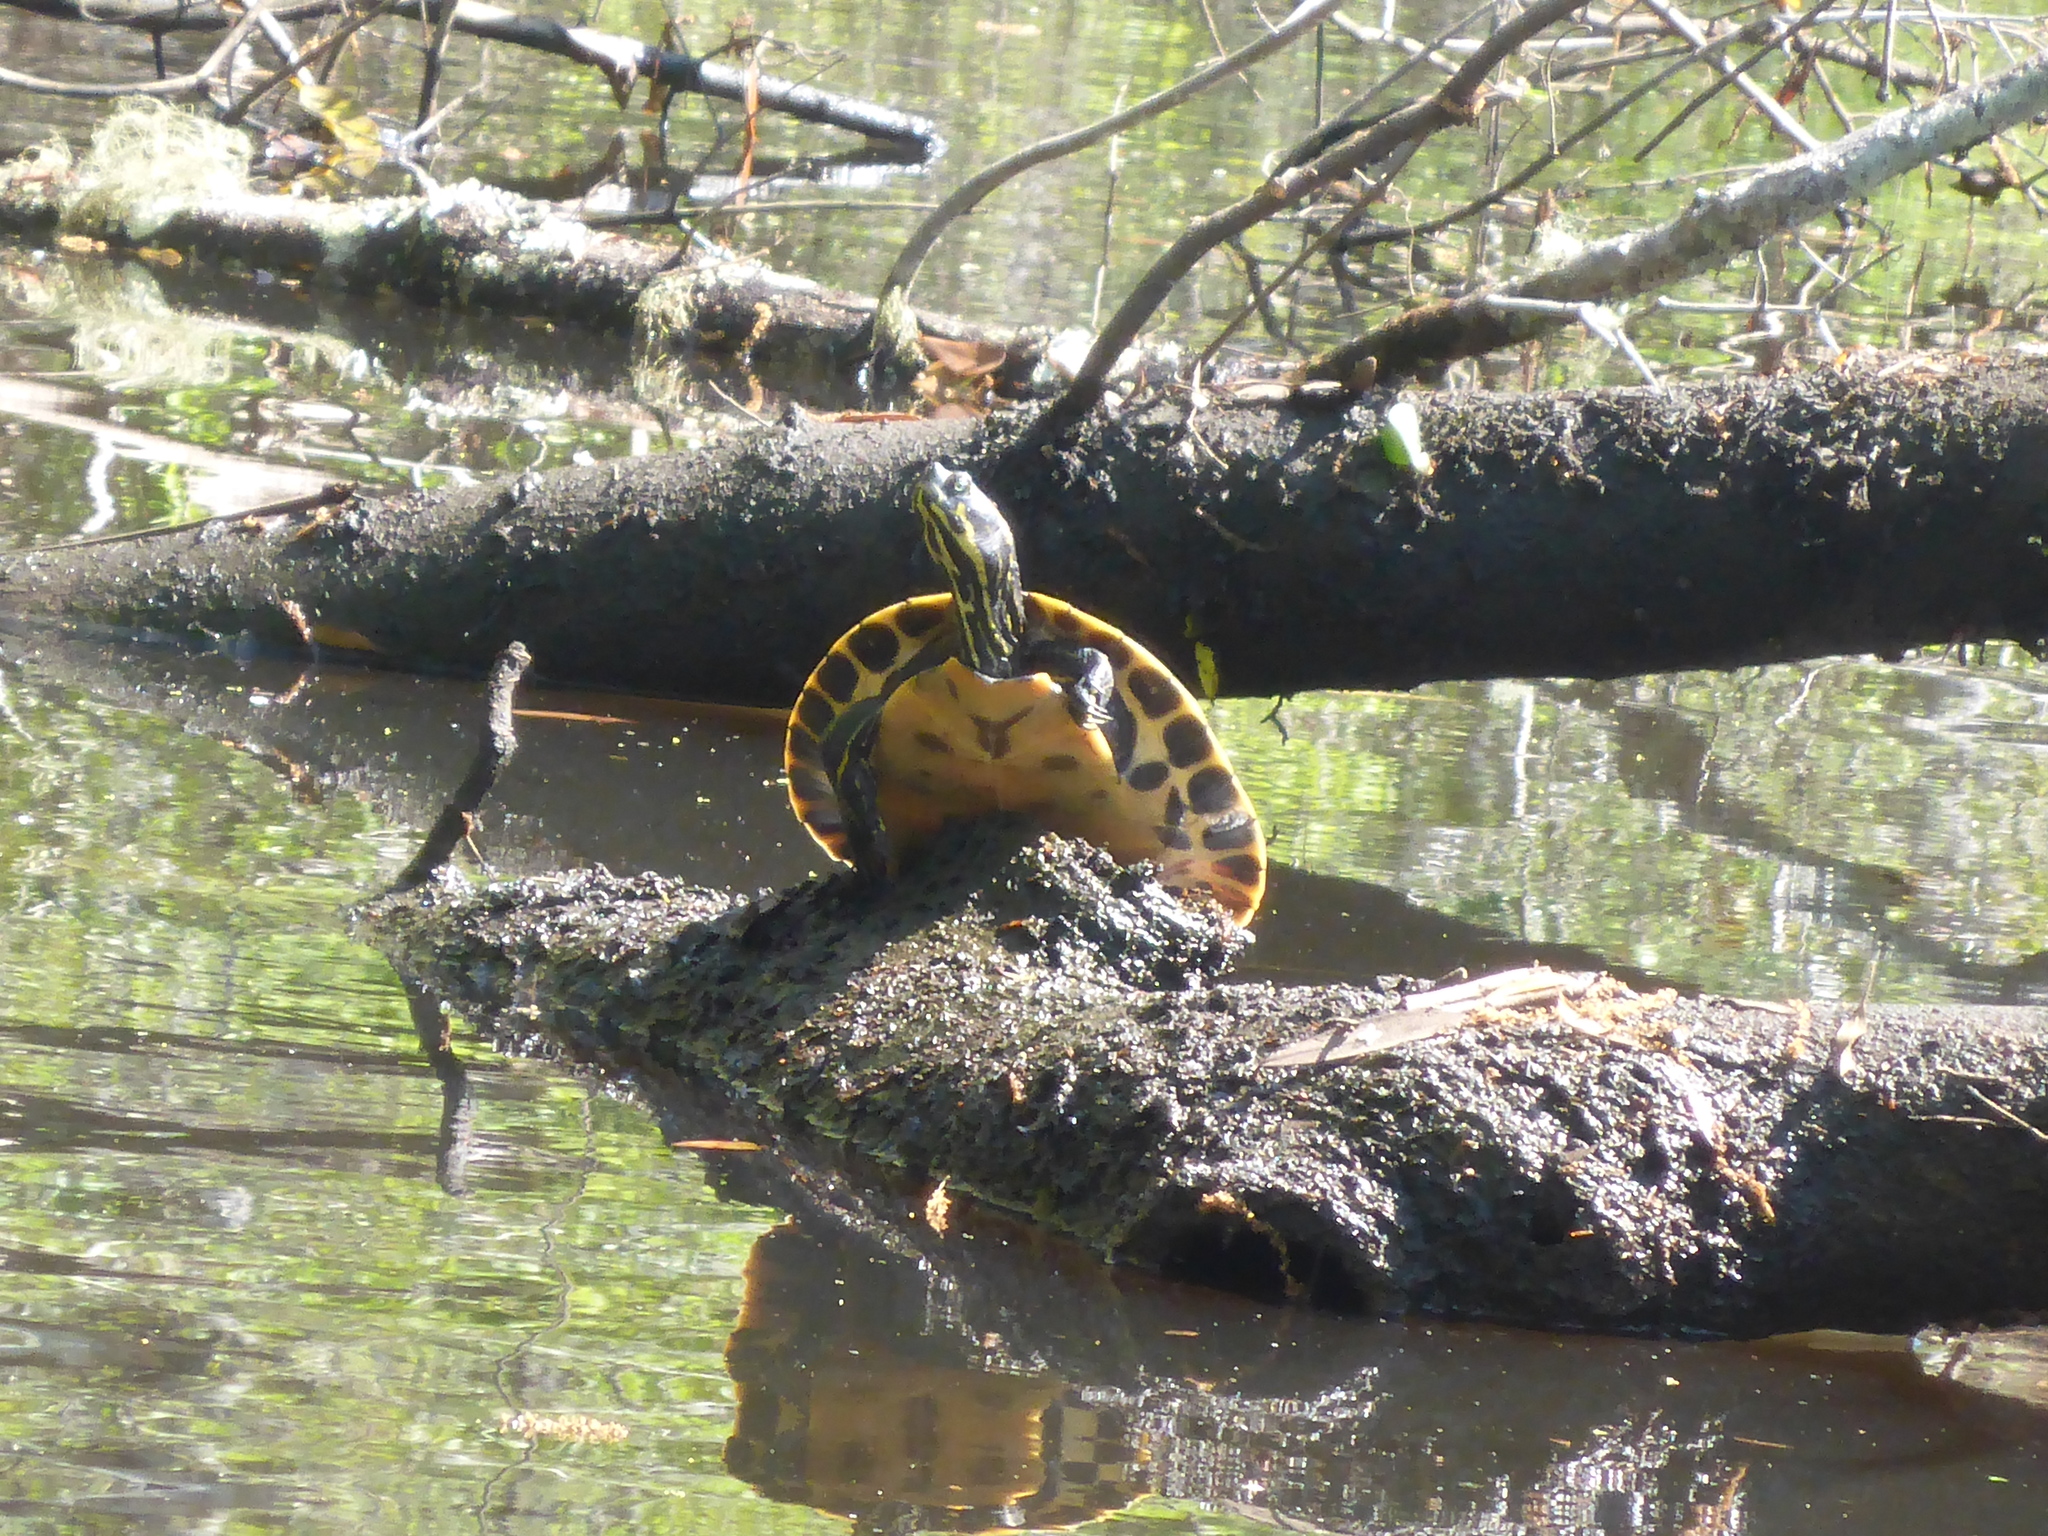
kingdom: Animalia
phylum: Chordata
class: Testudines
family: Emydidae
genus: Pseudemys
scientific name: Pseudemys concinna
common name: Eastern river cooter
